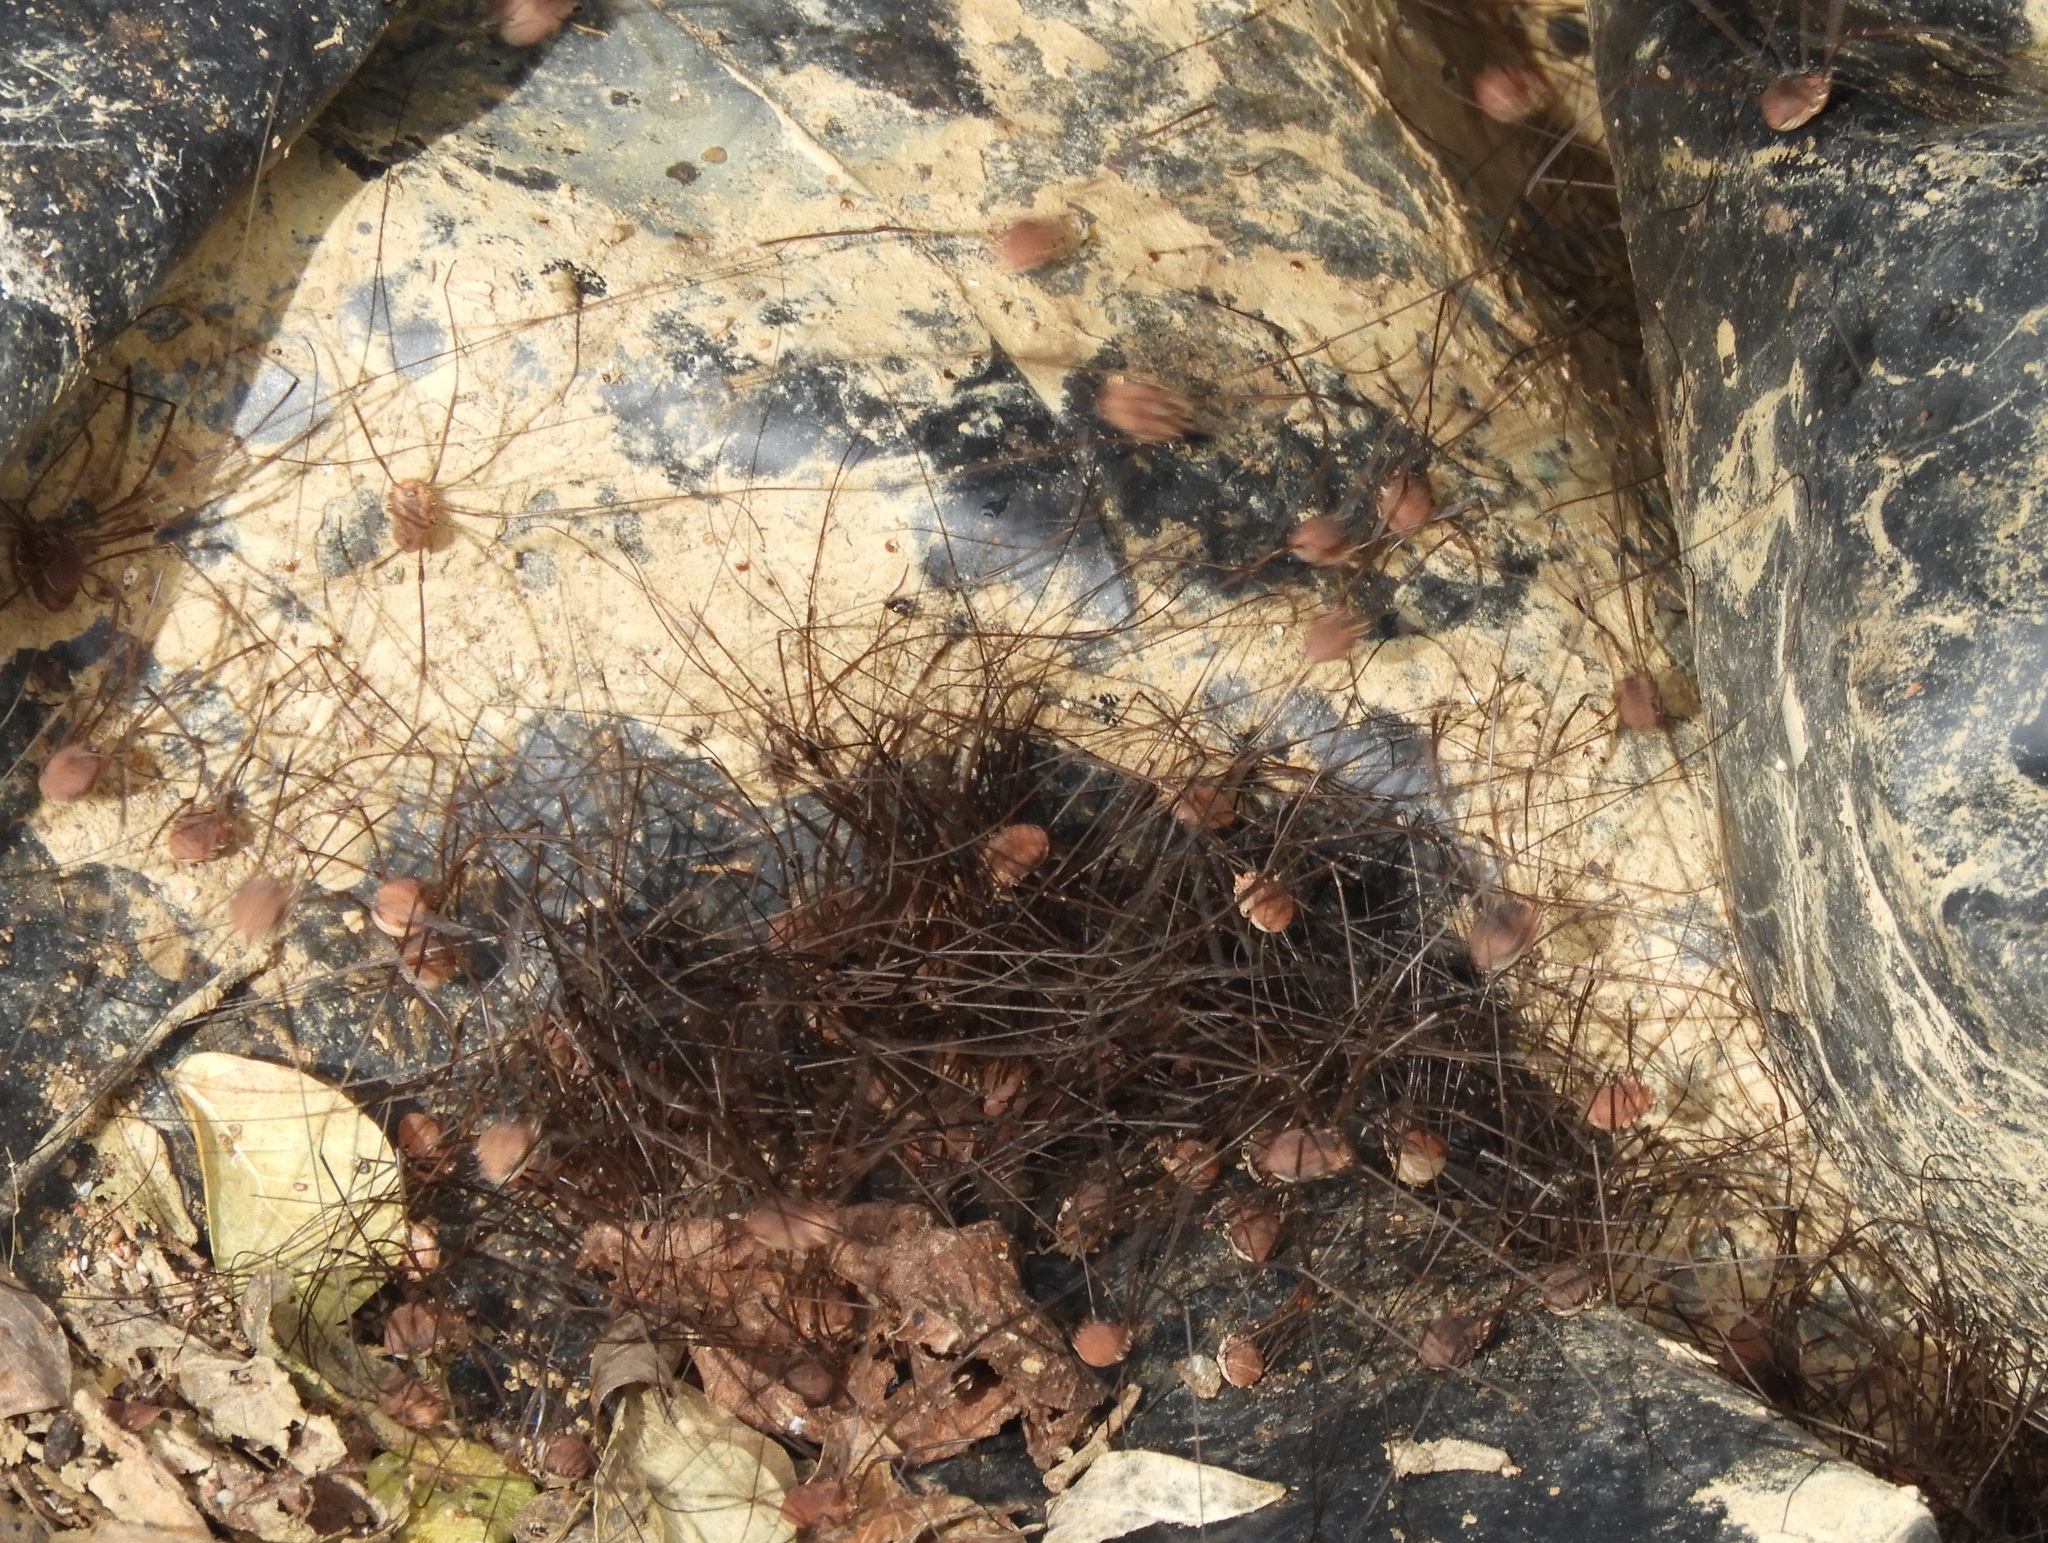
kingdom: Animalia
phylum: Arthropoda
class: Arachnida
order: Opiliones
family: Sclerosomatidae
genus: Leiobunum
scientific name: Leiobunum
